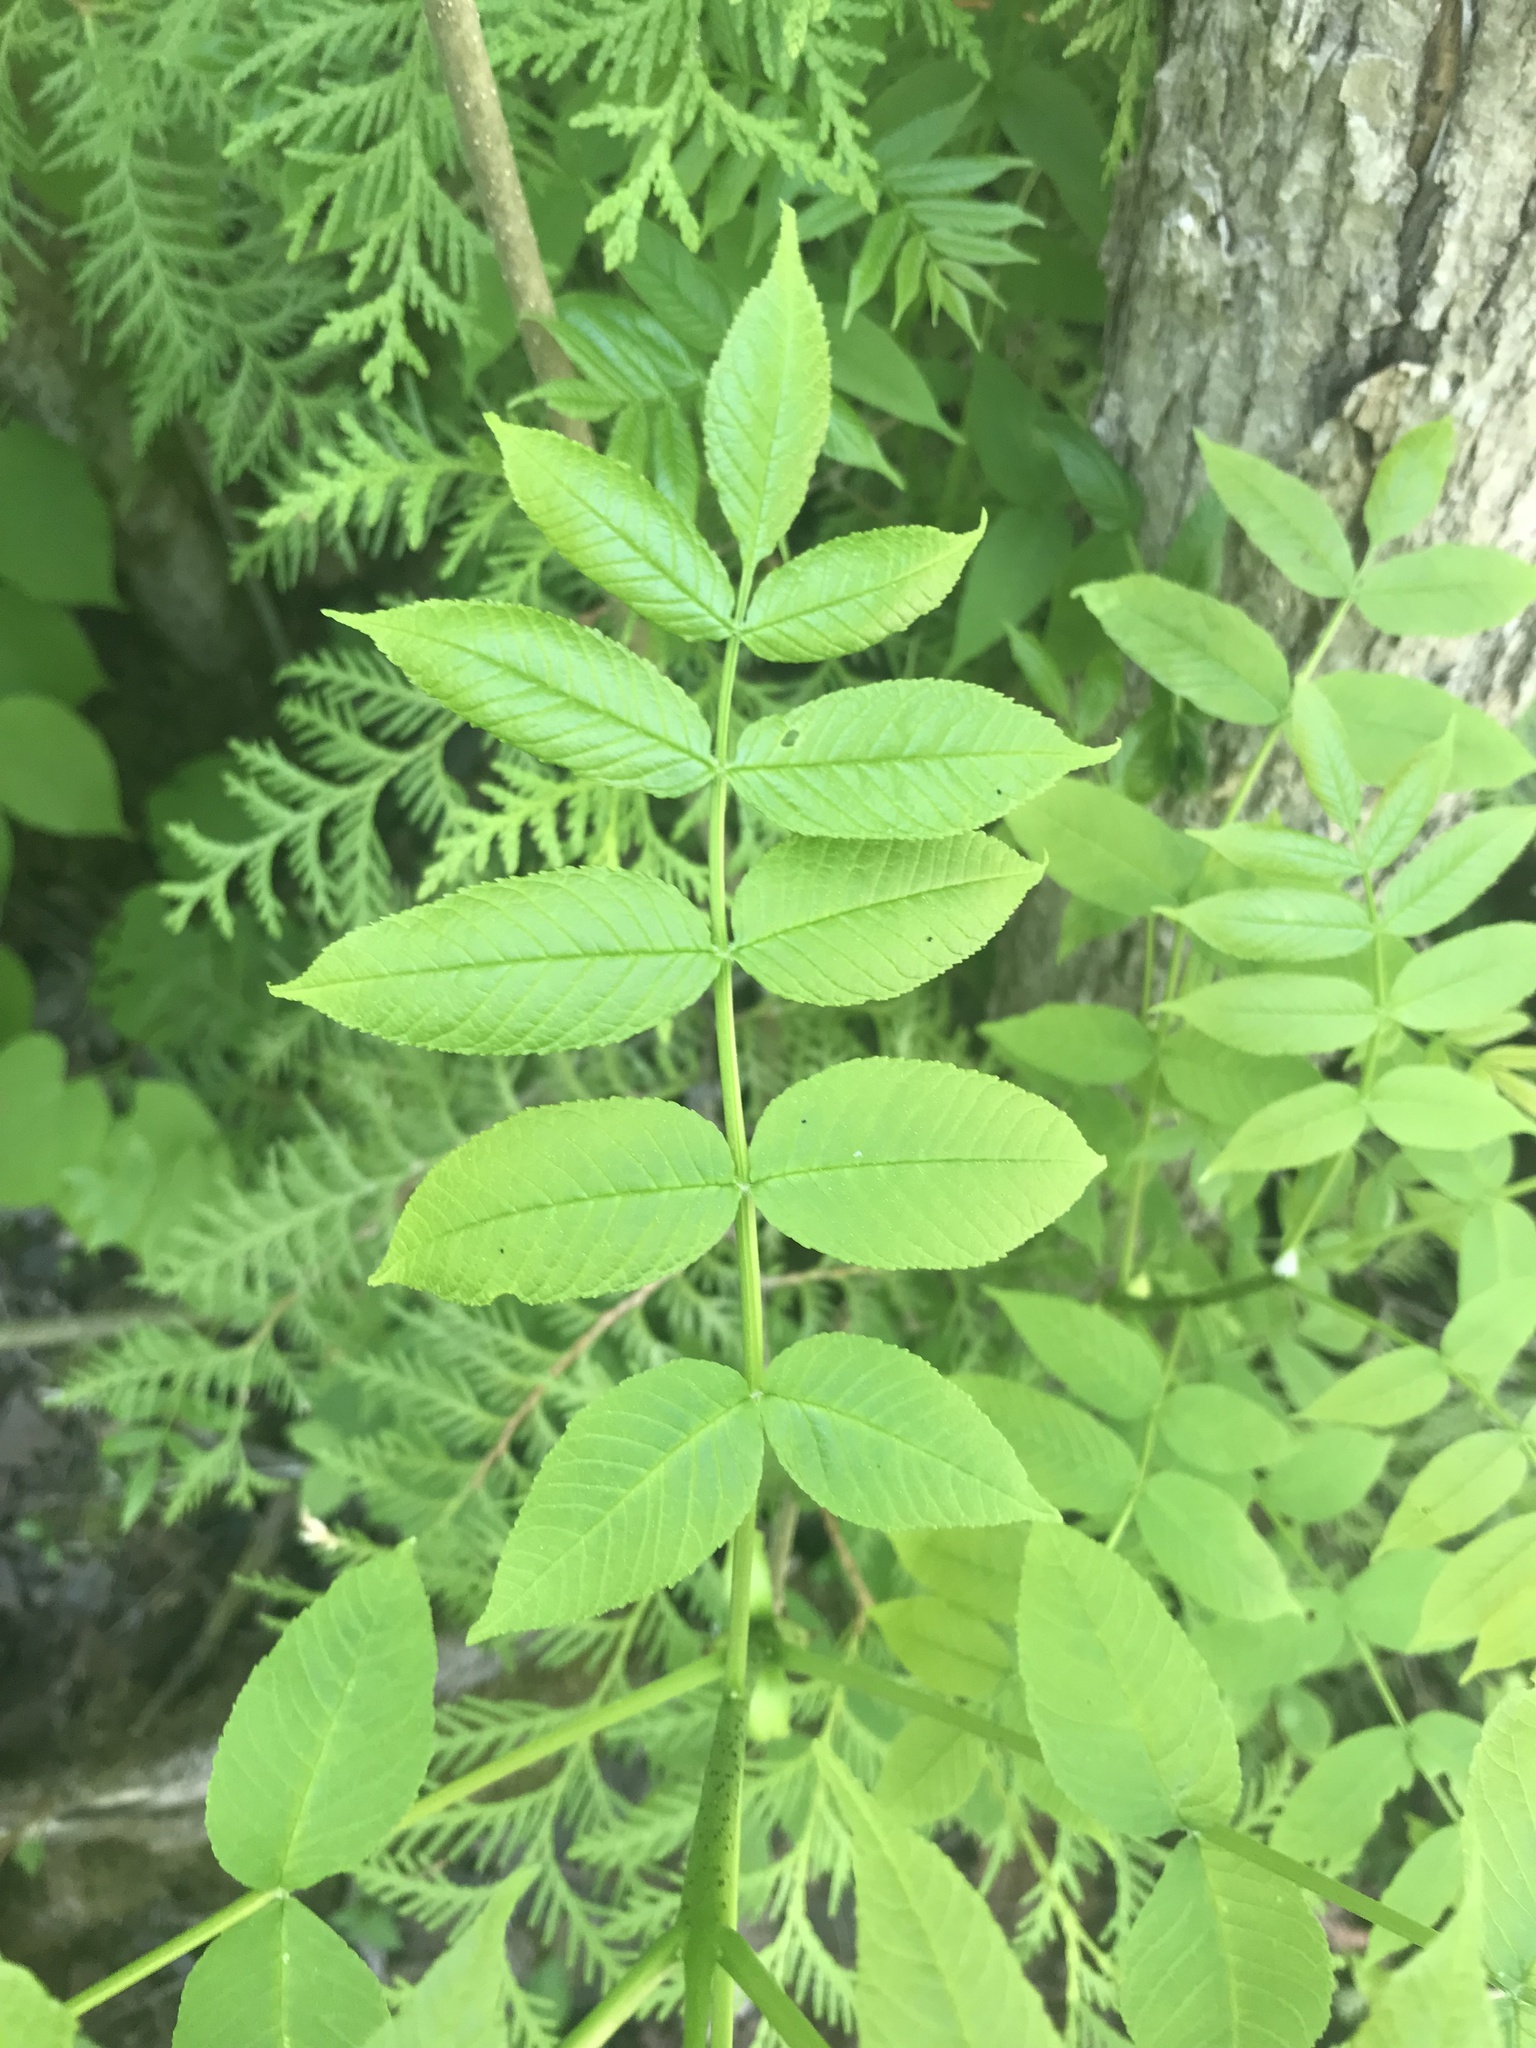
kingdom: Plantae
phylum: Tracheophyta
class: Magnoliopsida
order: Lamiales
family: Oleaceae
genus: Fraxinus
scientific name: Fraxinus nigra
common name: Black ash
